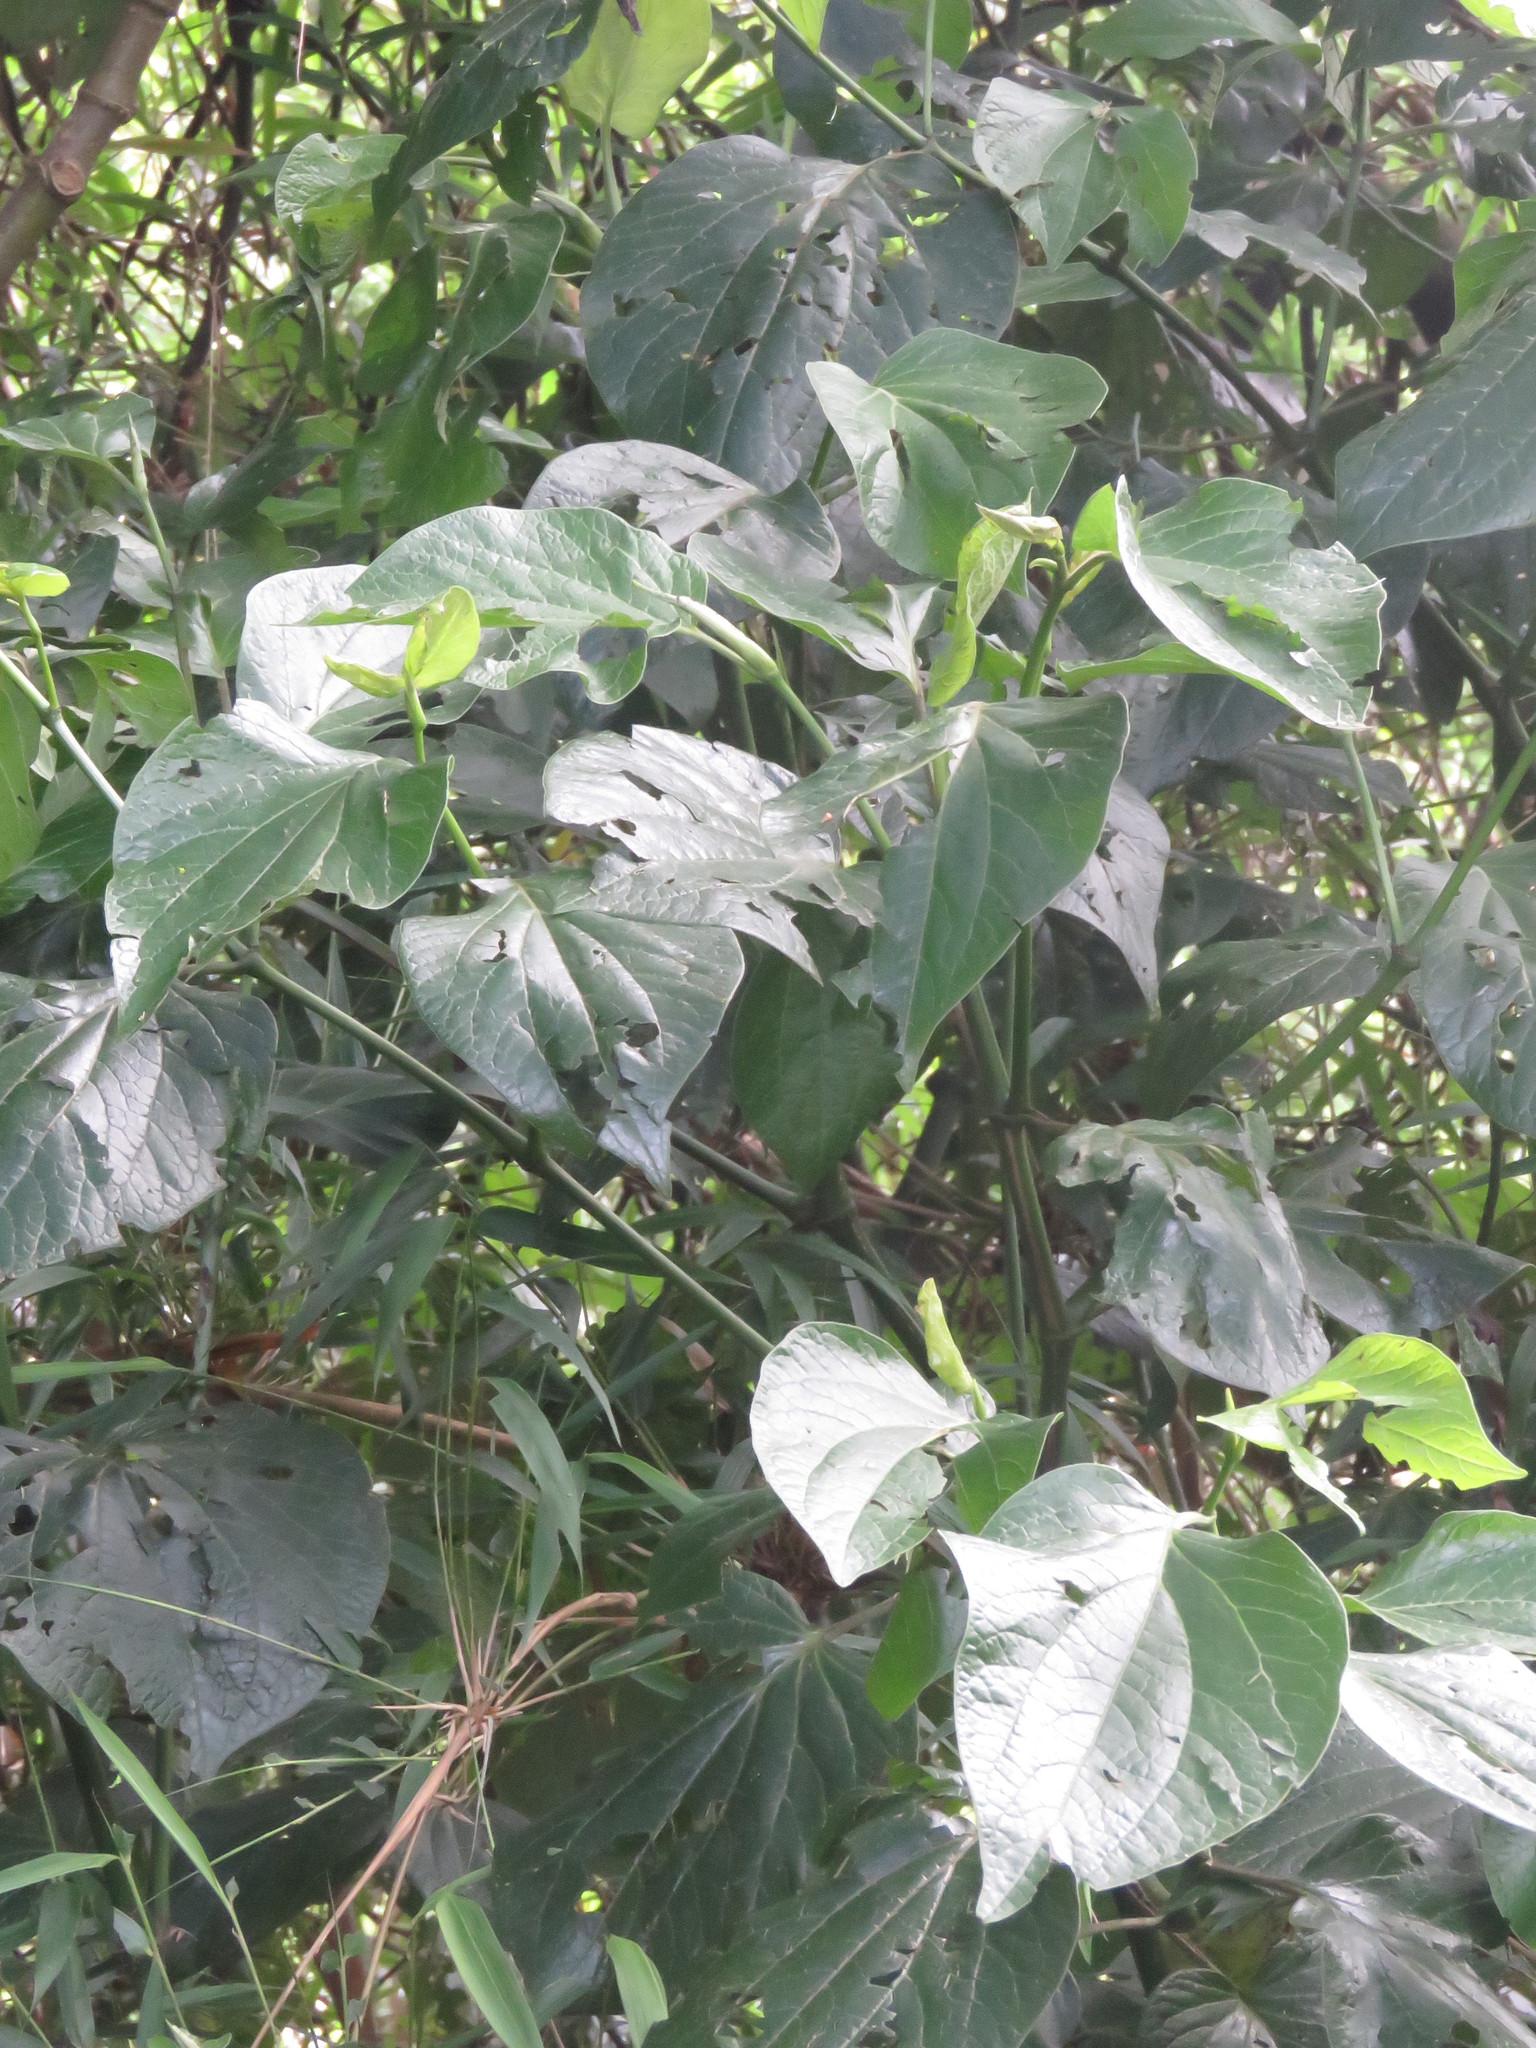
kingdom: Plantae
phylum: Tracheophyta
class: Magnoliopsida
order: Piperales
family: Piperaceae
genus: Piper
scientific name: Piper barbatum
